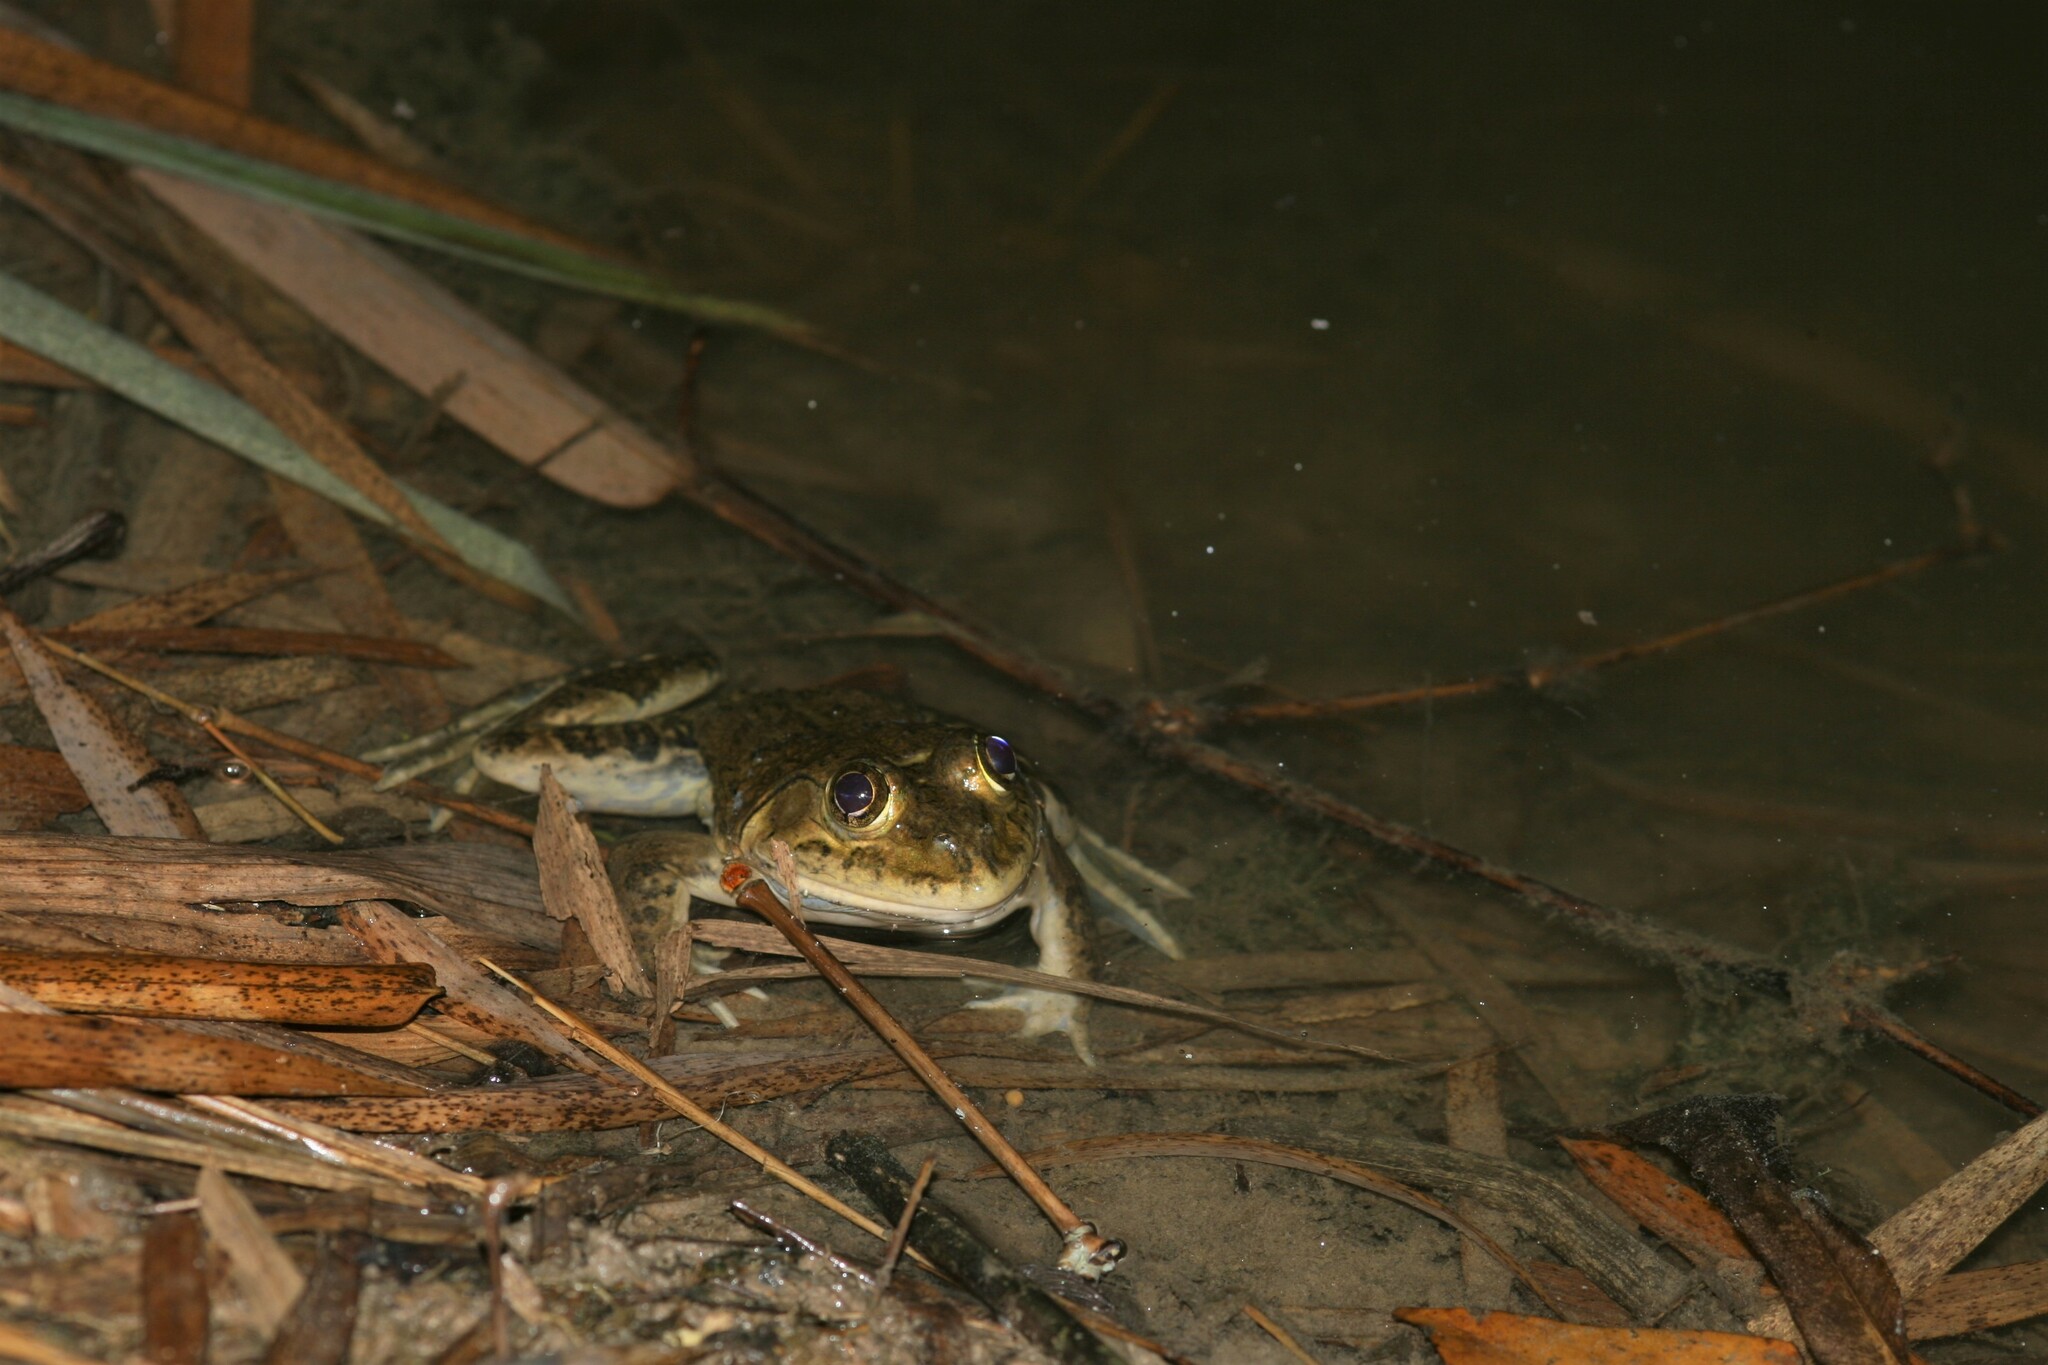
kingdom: Animalia
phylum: Chordata
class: Amphibia
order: Anura
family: Dicroglossidae
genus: Hoplobatrachus
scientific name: Hoplobatrachus occipitalis
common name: Eastern groove-crowned bullfrog
